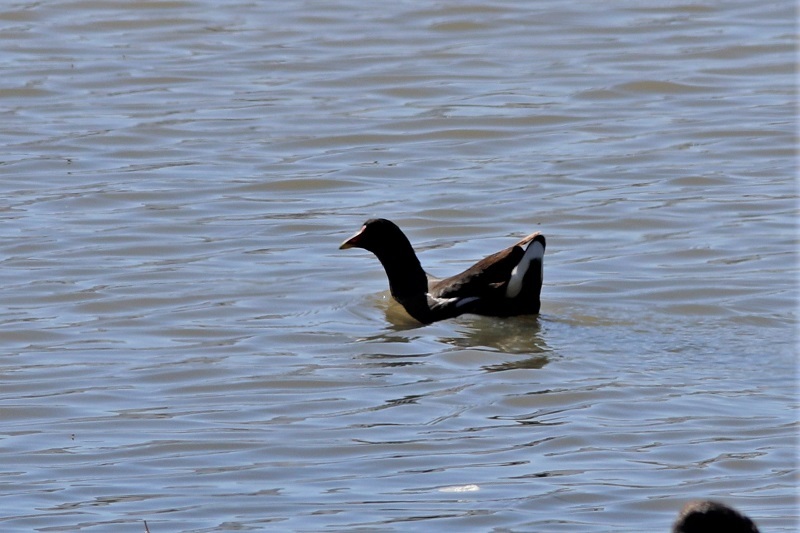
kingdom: Animalia
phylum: Chordata
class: Aves
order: Gruiformes
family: Rallidae
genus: Gallinula
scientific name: Gallinula chloropus
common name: Common moorhen
